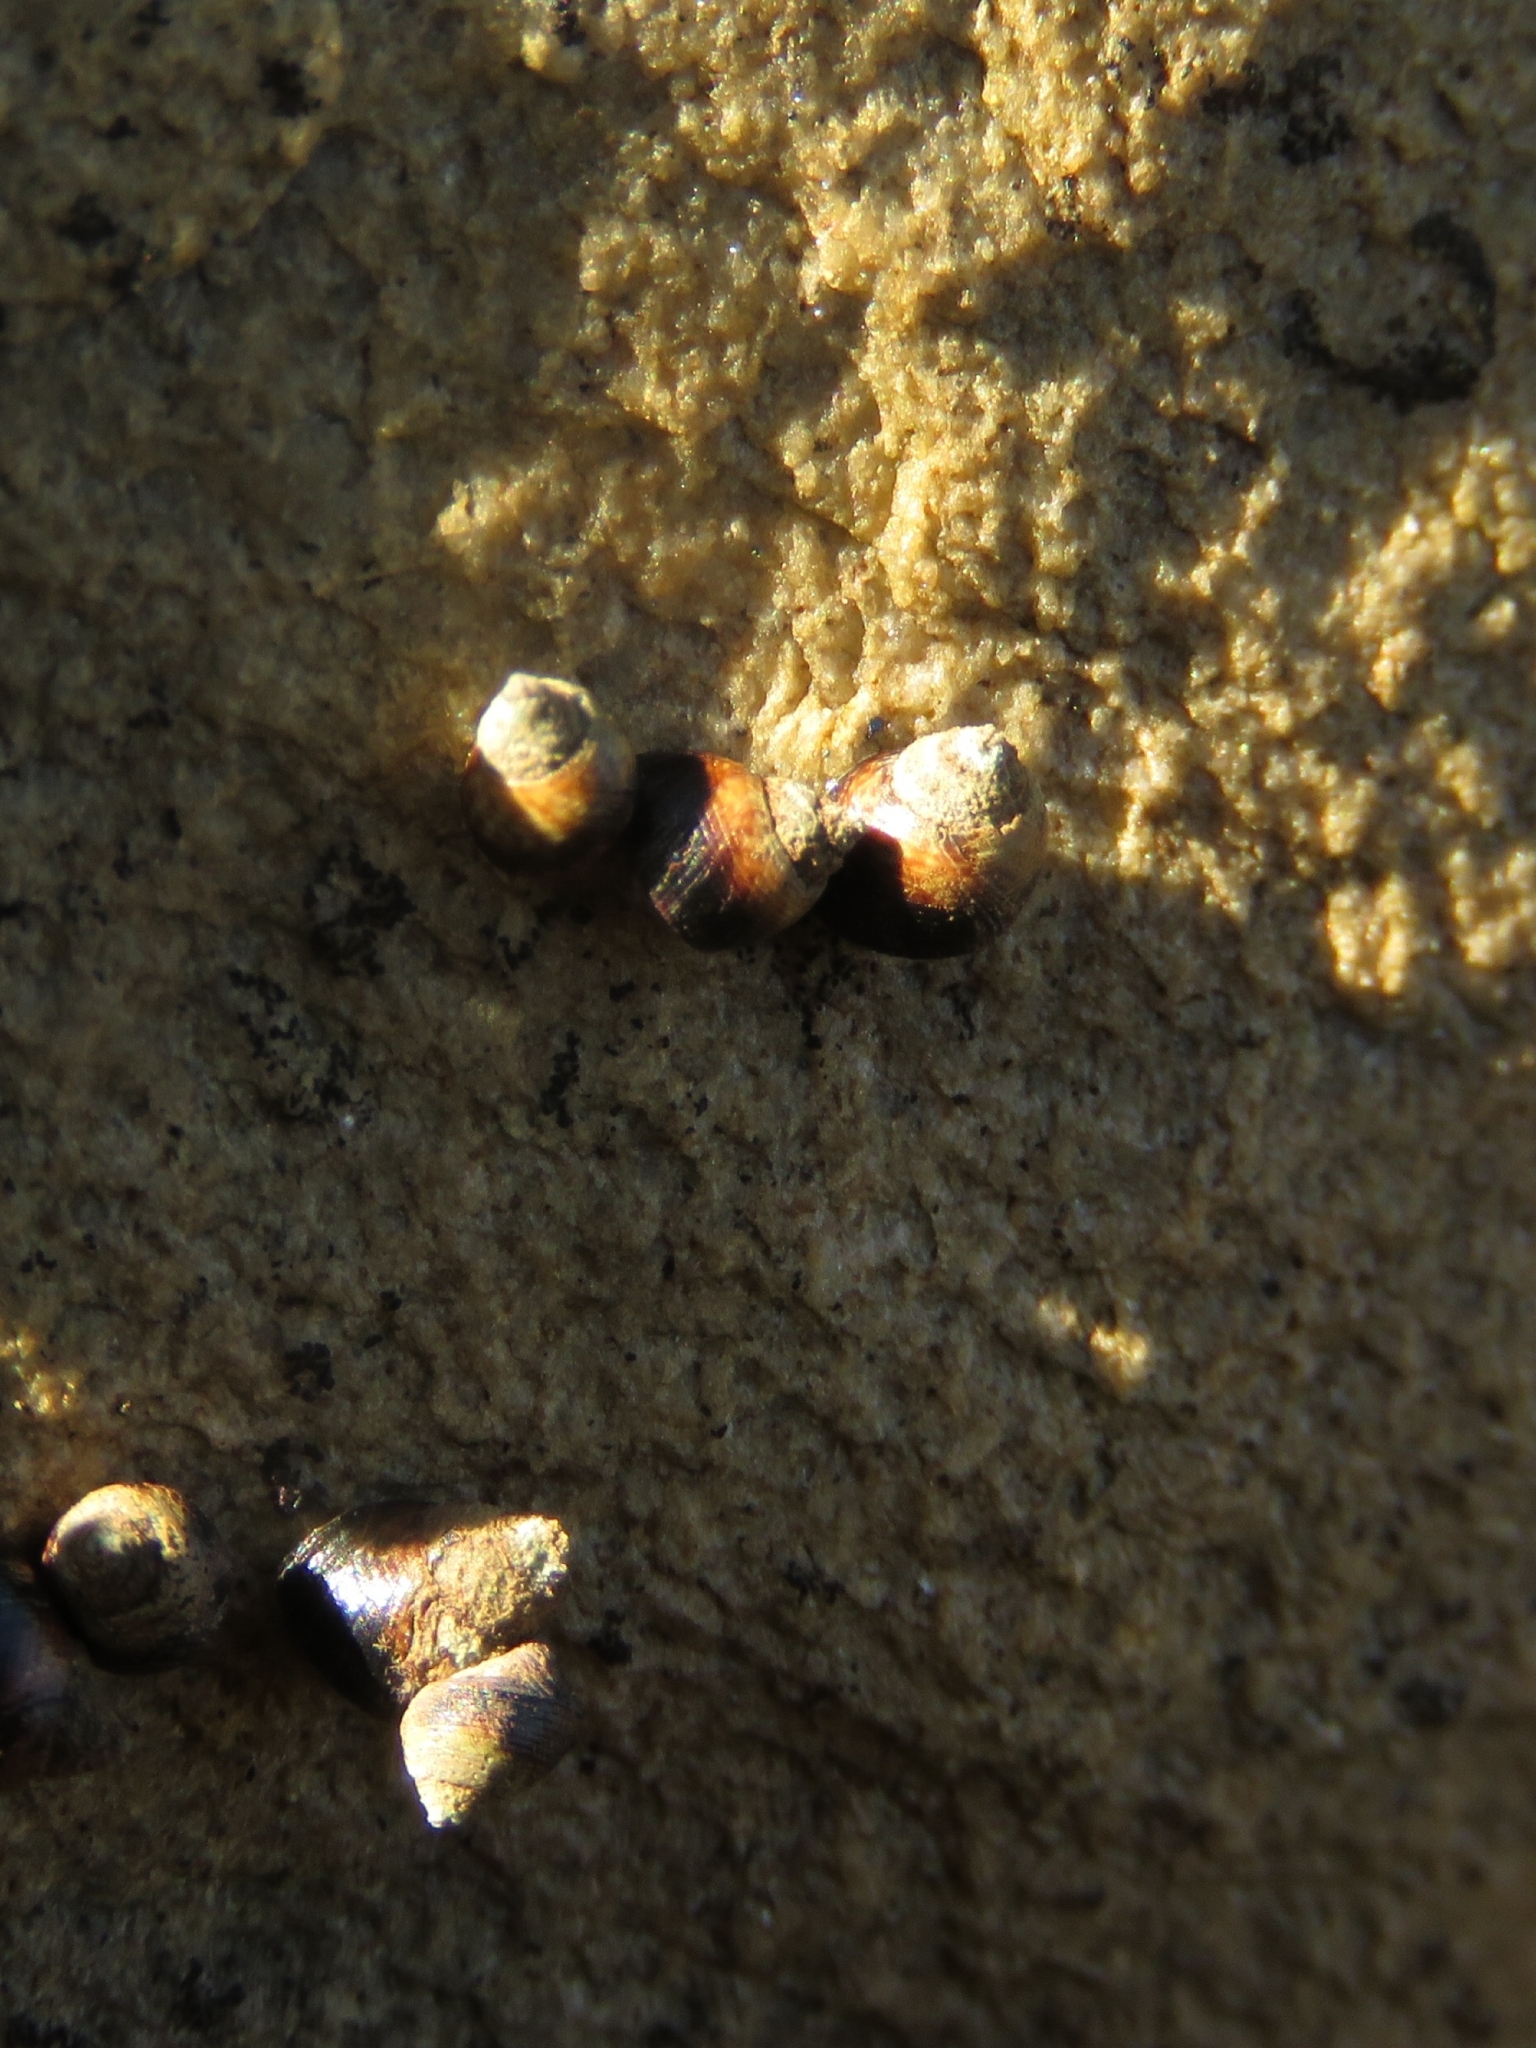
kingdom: Animalia
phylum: Mollusca
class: Gastropoda
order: Littorinimorpha
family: Littorinidae
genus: Afrolittorina
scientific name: Afrolittorina knysnaensis
